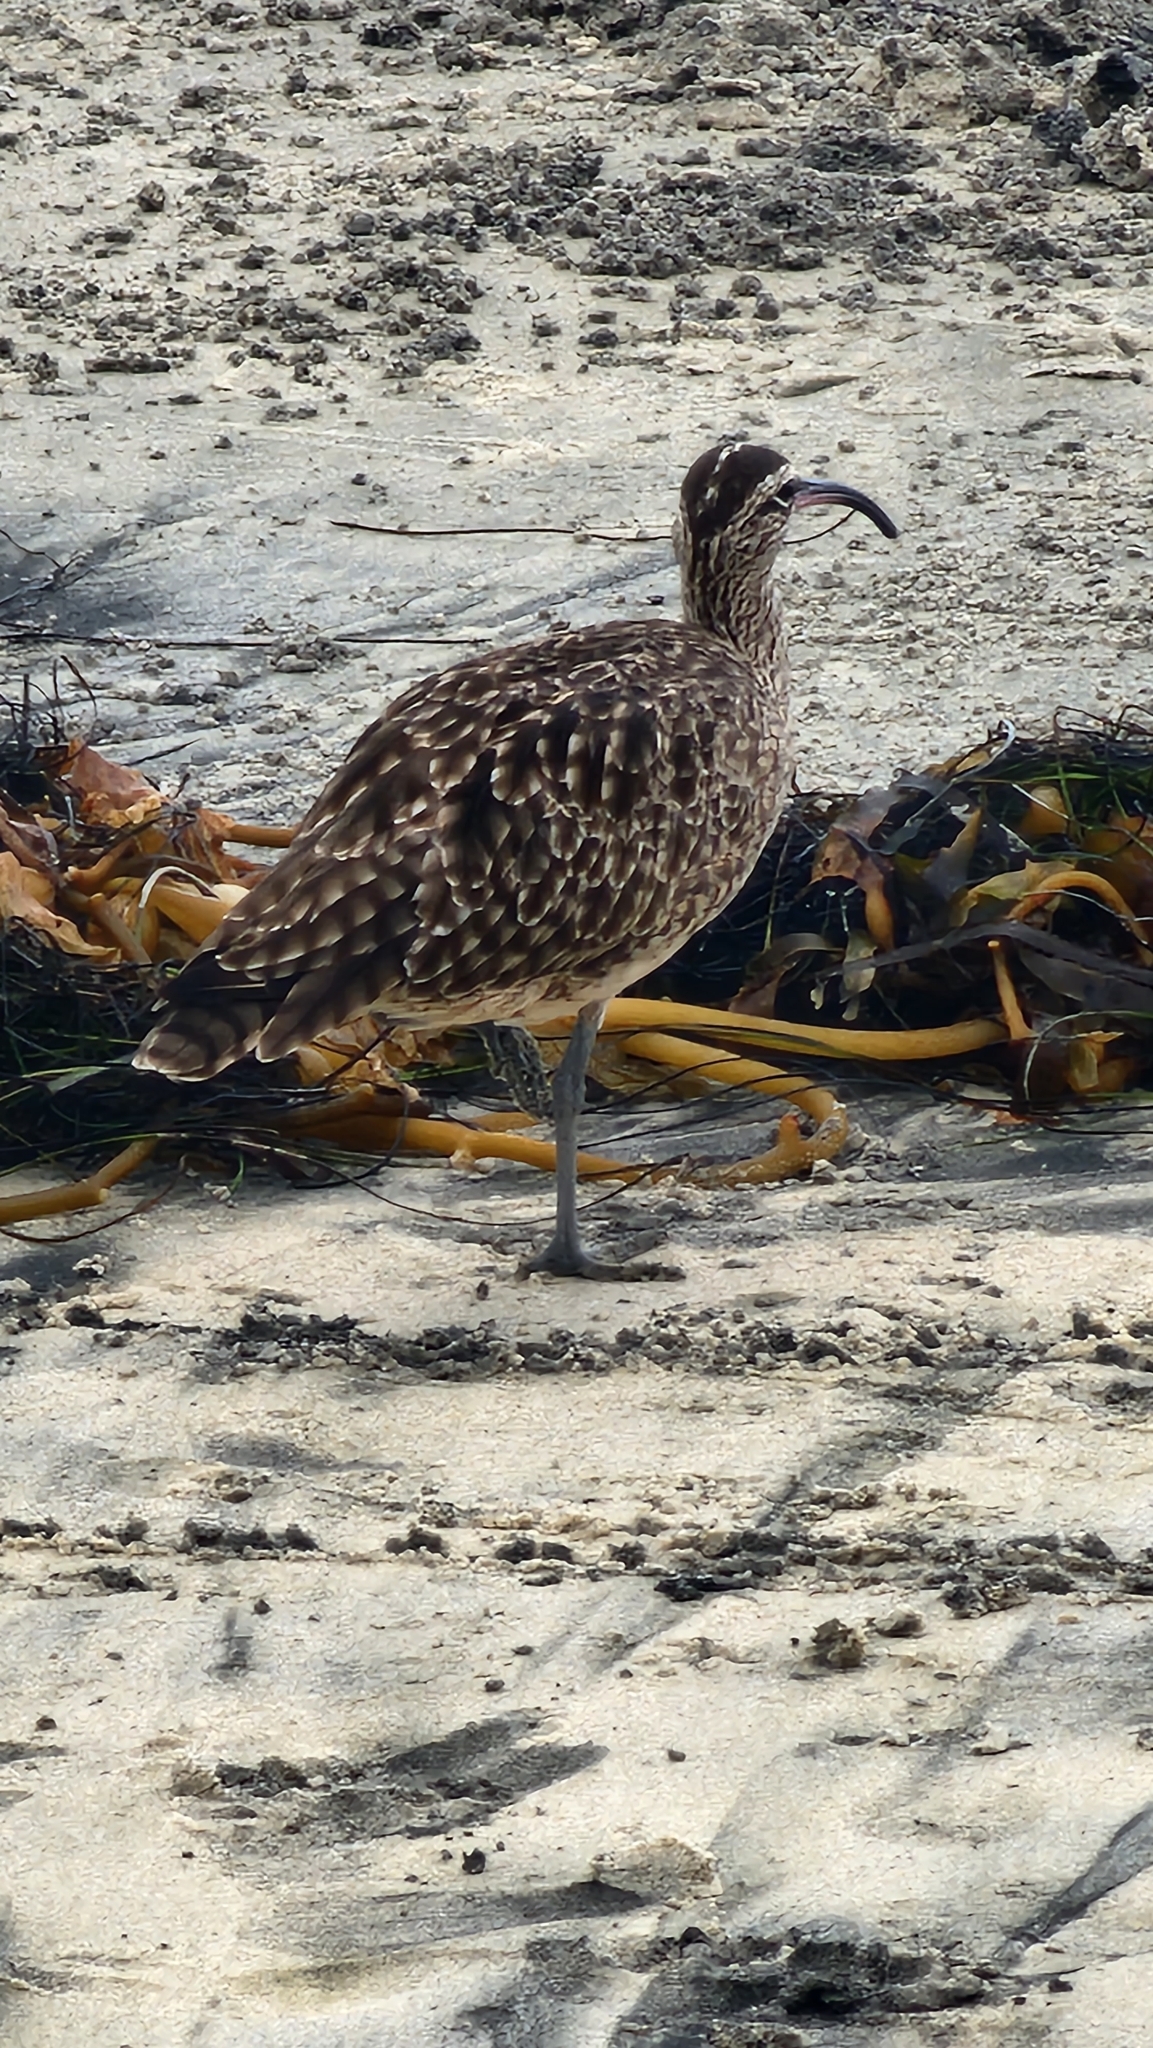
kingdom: Animalia
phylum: Chordata
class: Aves
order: Charadriiformes
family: Scolopacidae
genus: Numenius
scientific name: Numenius phaeopus
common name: Whimbrel
